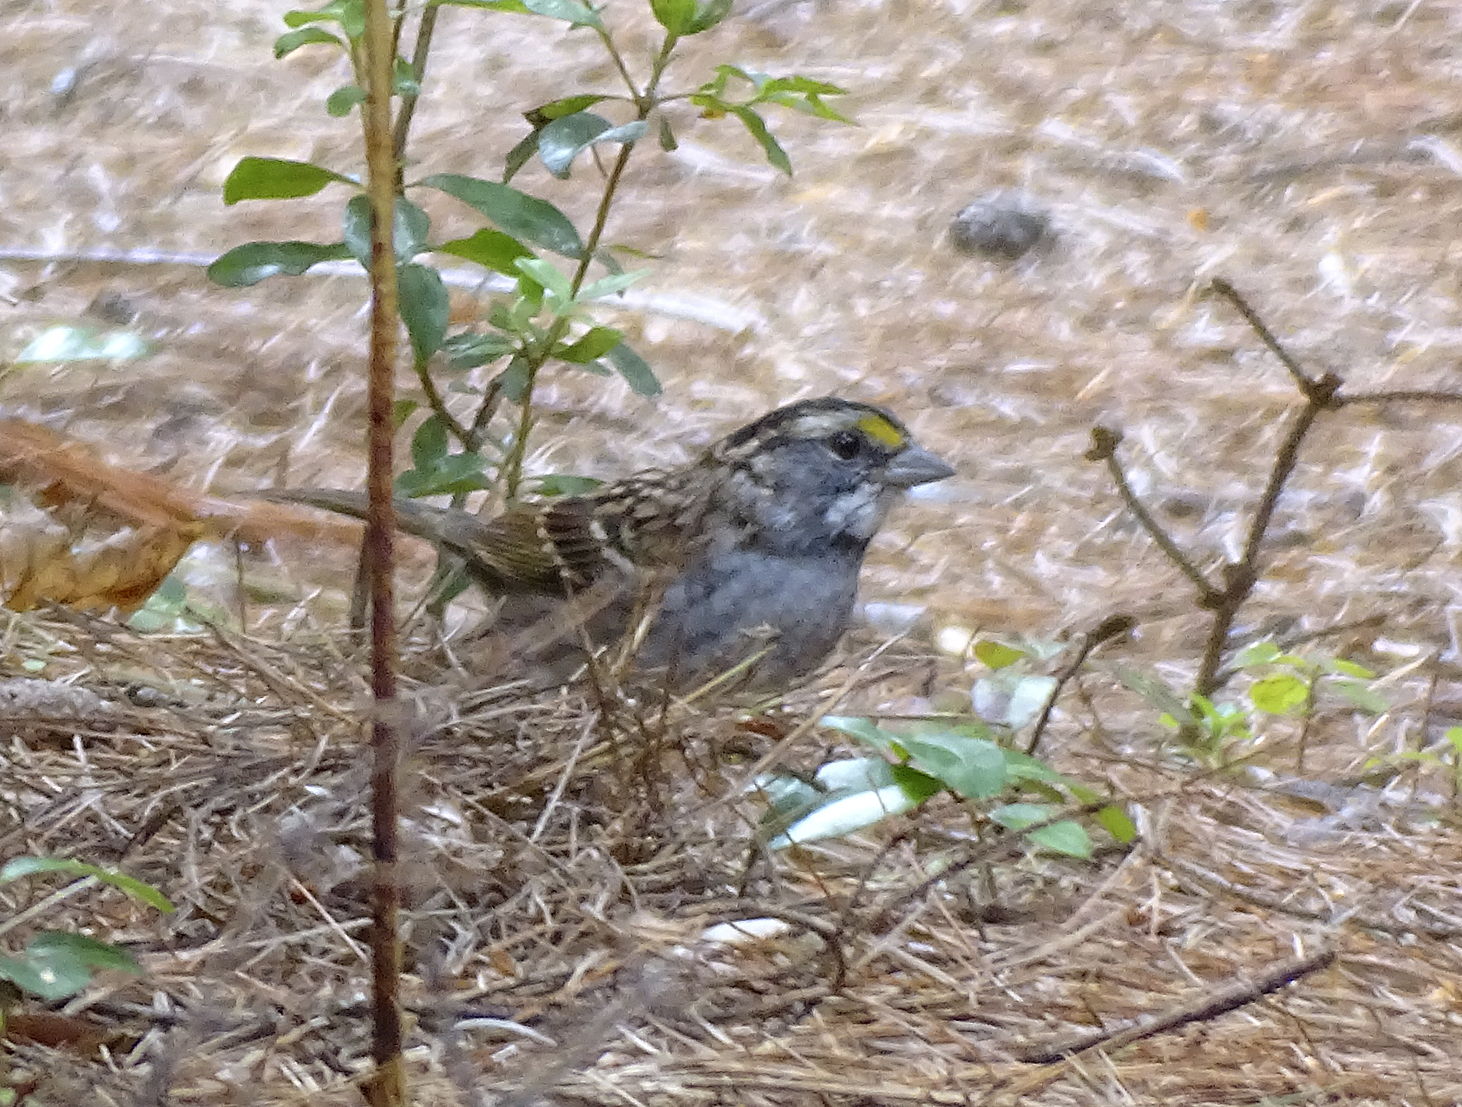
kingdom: Animalia
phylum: Chordata
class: Aves
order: Passeriformes
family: Passerellidae
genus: Zonotrichia
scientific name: Zonotrichia albicollis
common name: White-throated sparrow
